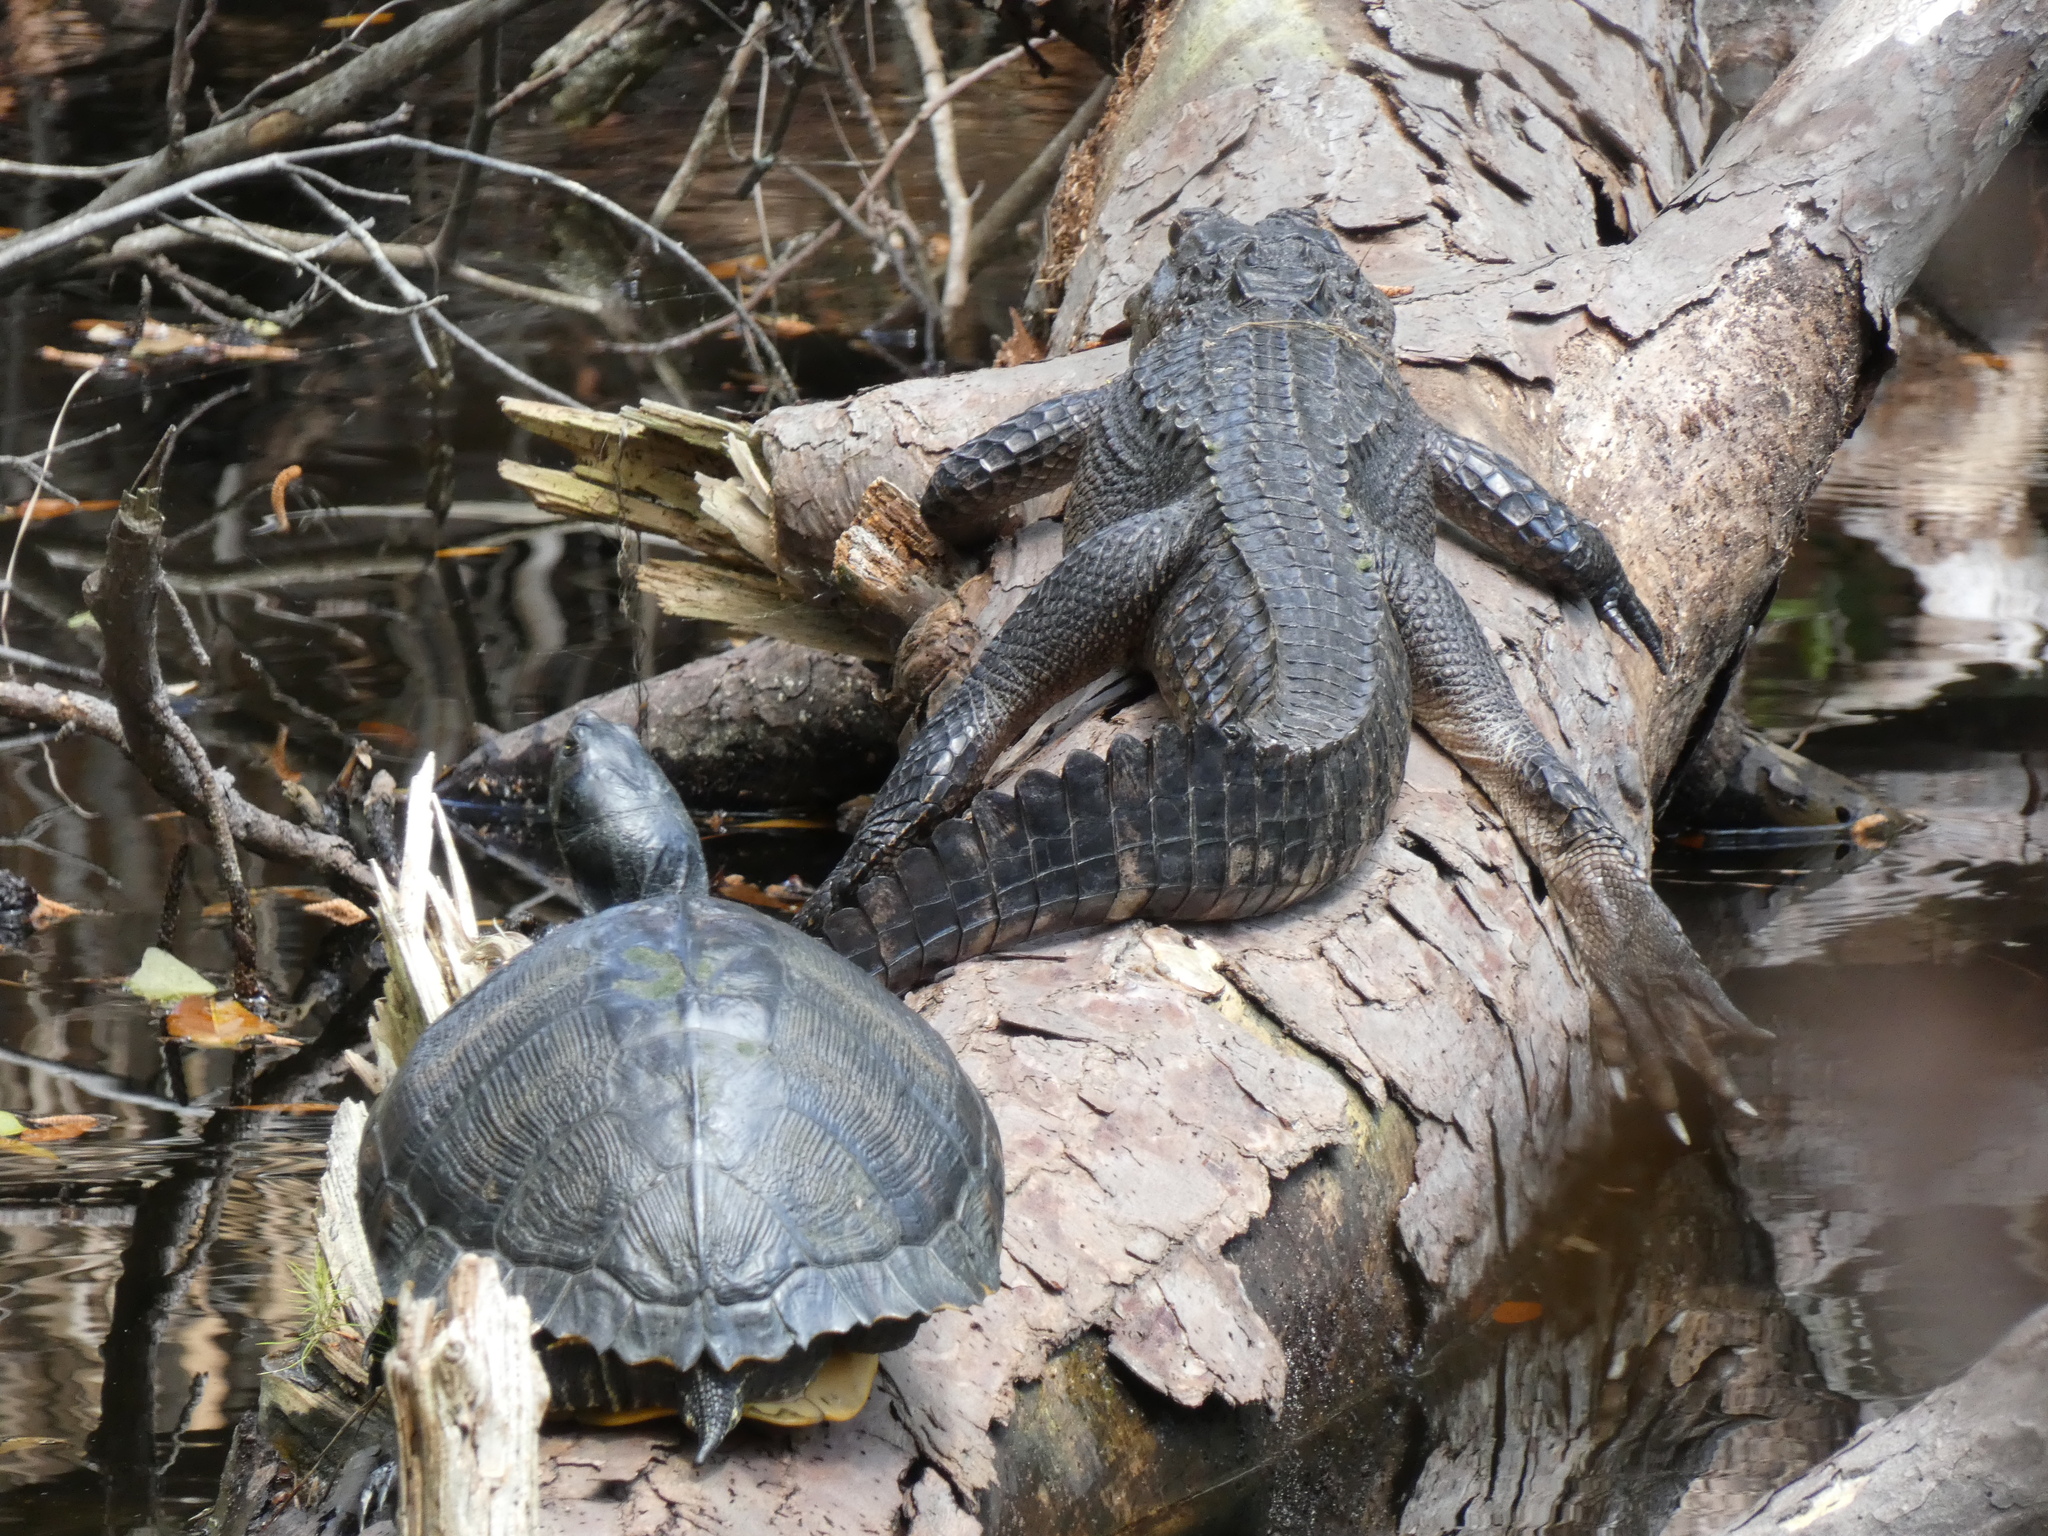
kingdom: Animalia
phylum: Chordata
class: Testudines
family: Emydidae
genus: Trachemys
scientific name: Trachemys scripta
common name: Slider
